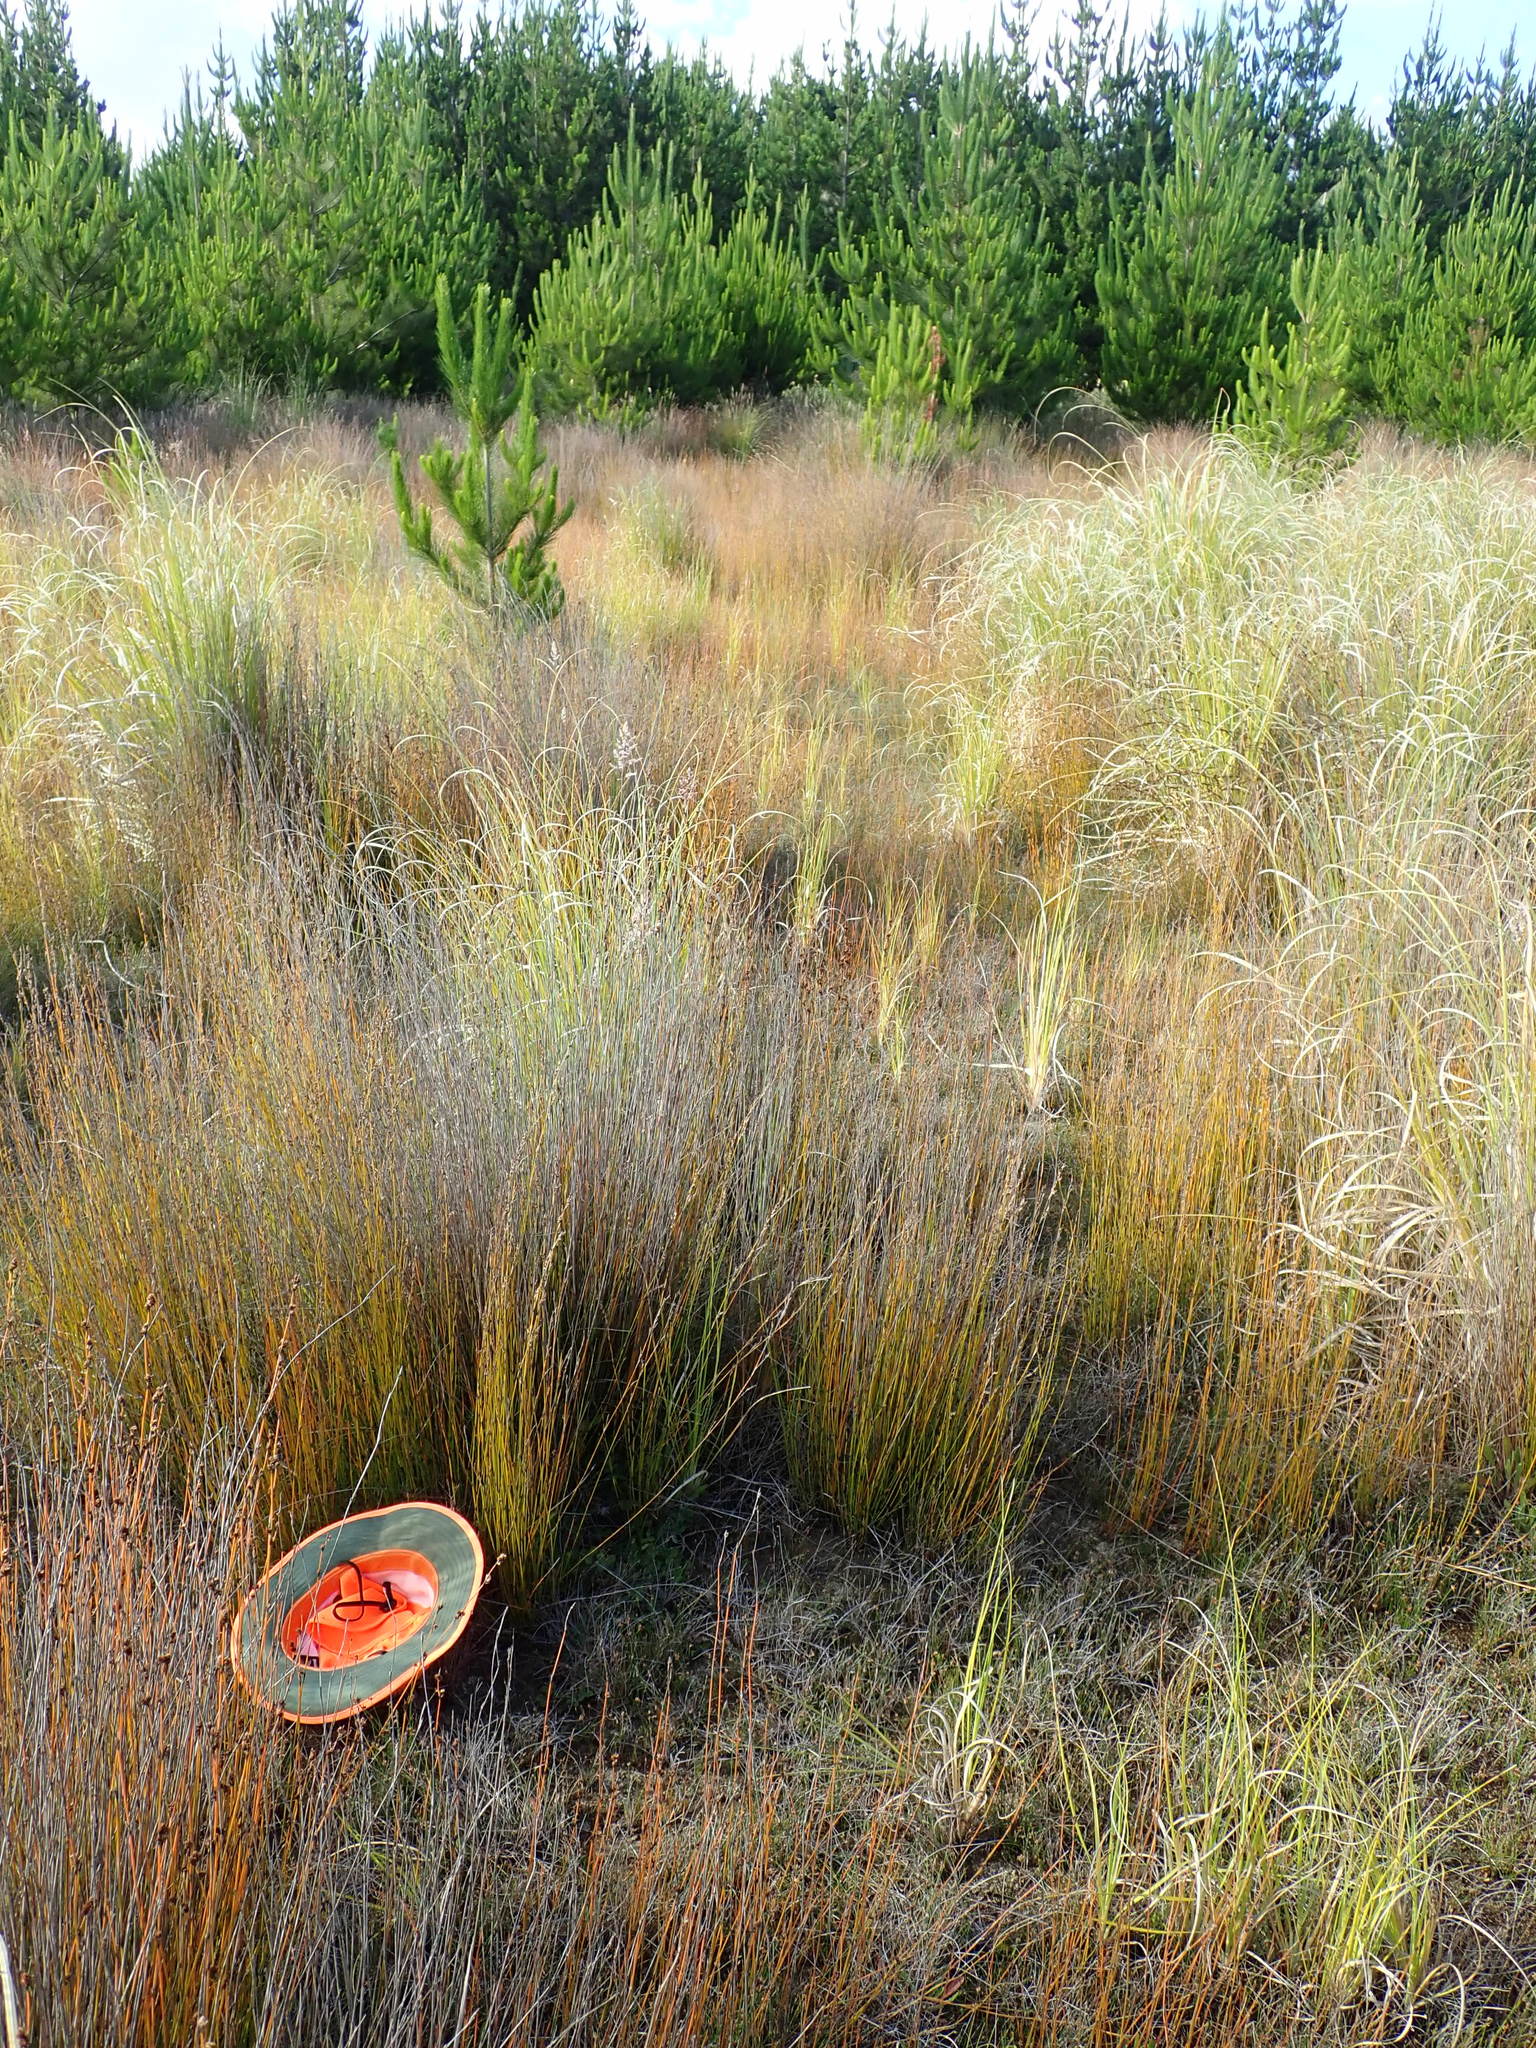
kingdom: Plantae
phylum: Tracheophyta
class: Magnoliopsida
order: Myrtales
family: Onagraceae
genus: Epilobium
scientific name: Epilobium billardiereanum
